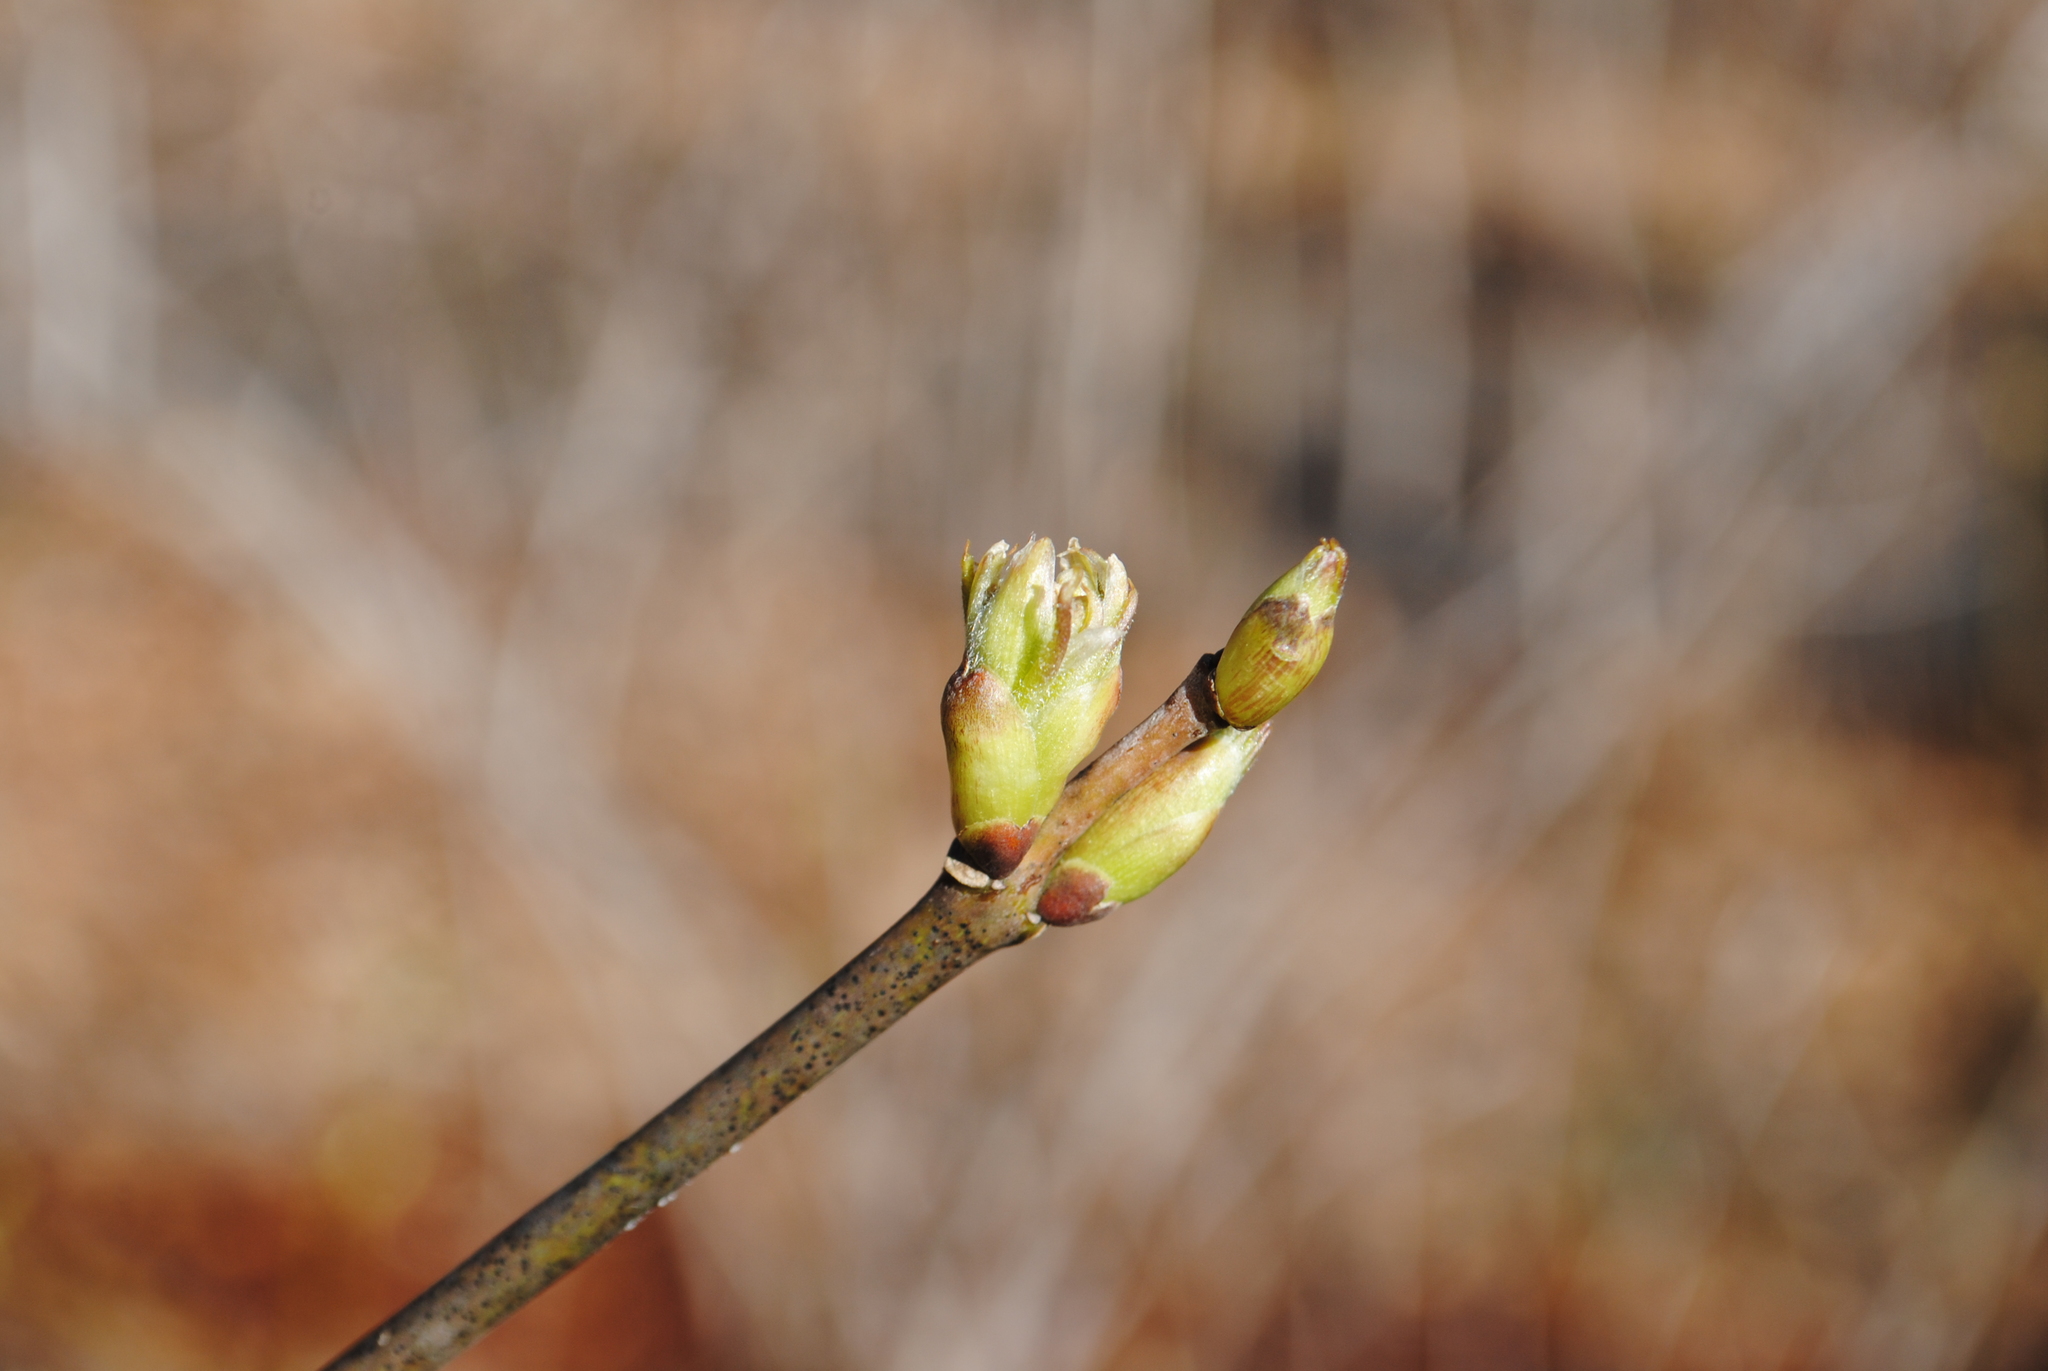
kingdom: Plantae
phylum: Tracheophyta
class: Magnoliopsida
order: Crossosomatales
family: Staphyleaceae
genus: Staphylea
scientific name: Staphylea trifolia
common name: American bladdernut
